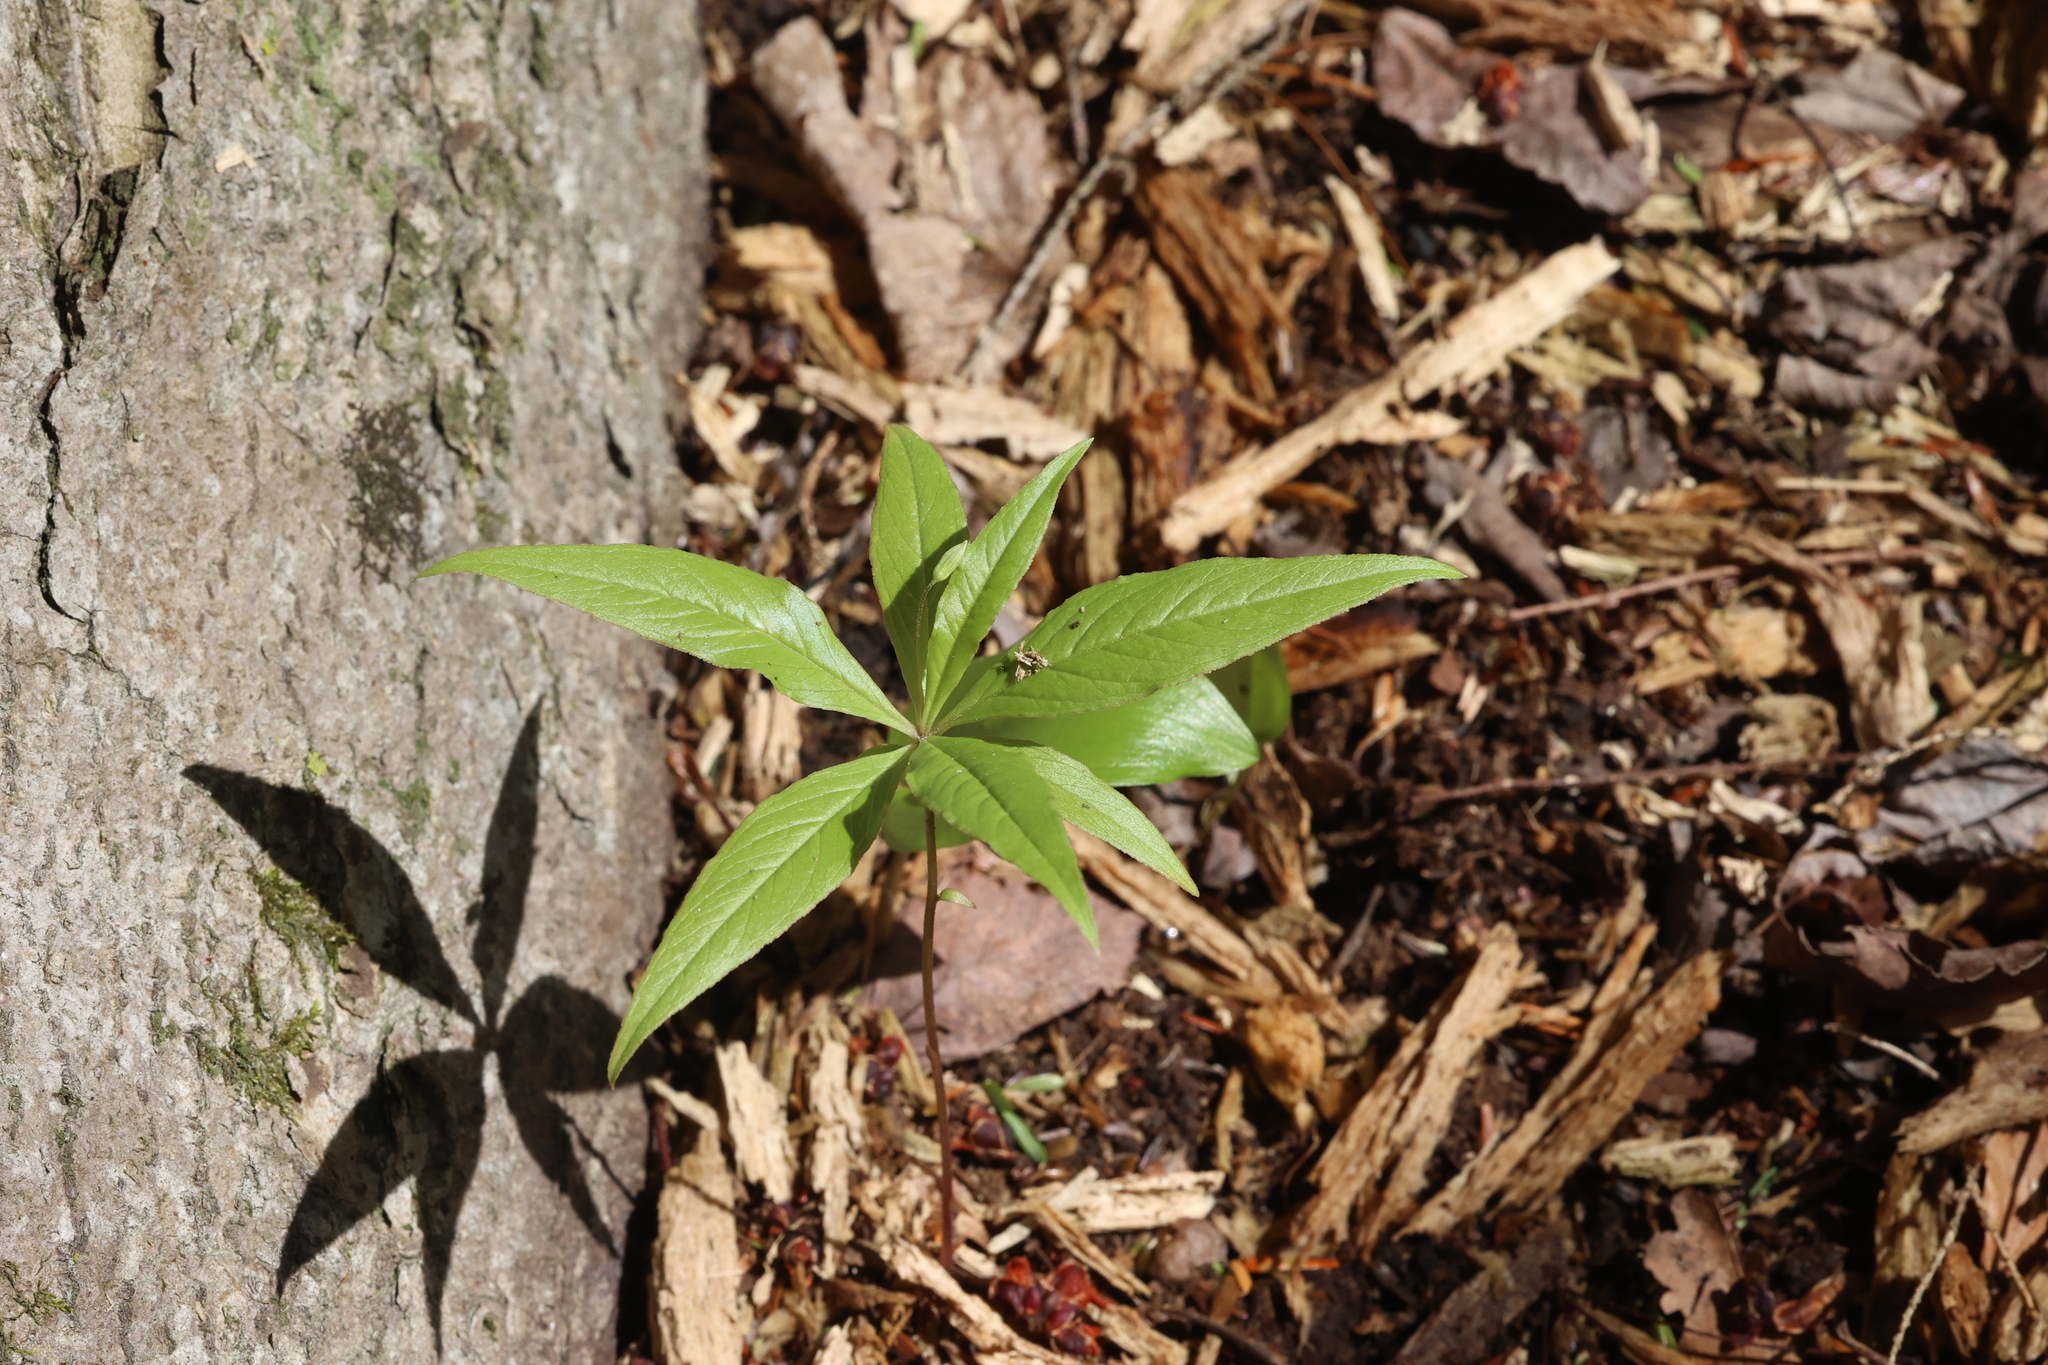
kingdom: Plantae
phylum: Tracheophyta
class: Magnoliopsida
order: Ericales
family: Primulaceae
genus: Lysimachia
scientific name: Lysimachia borealis
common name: American starflower
